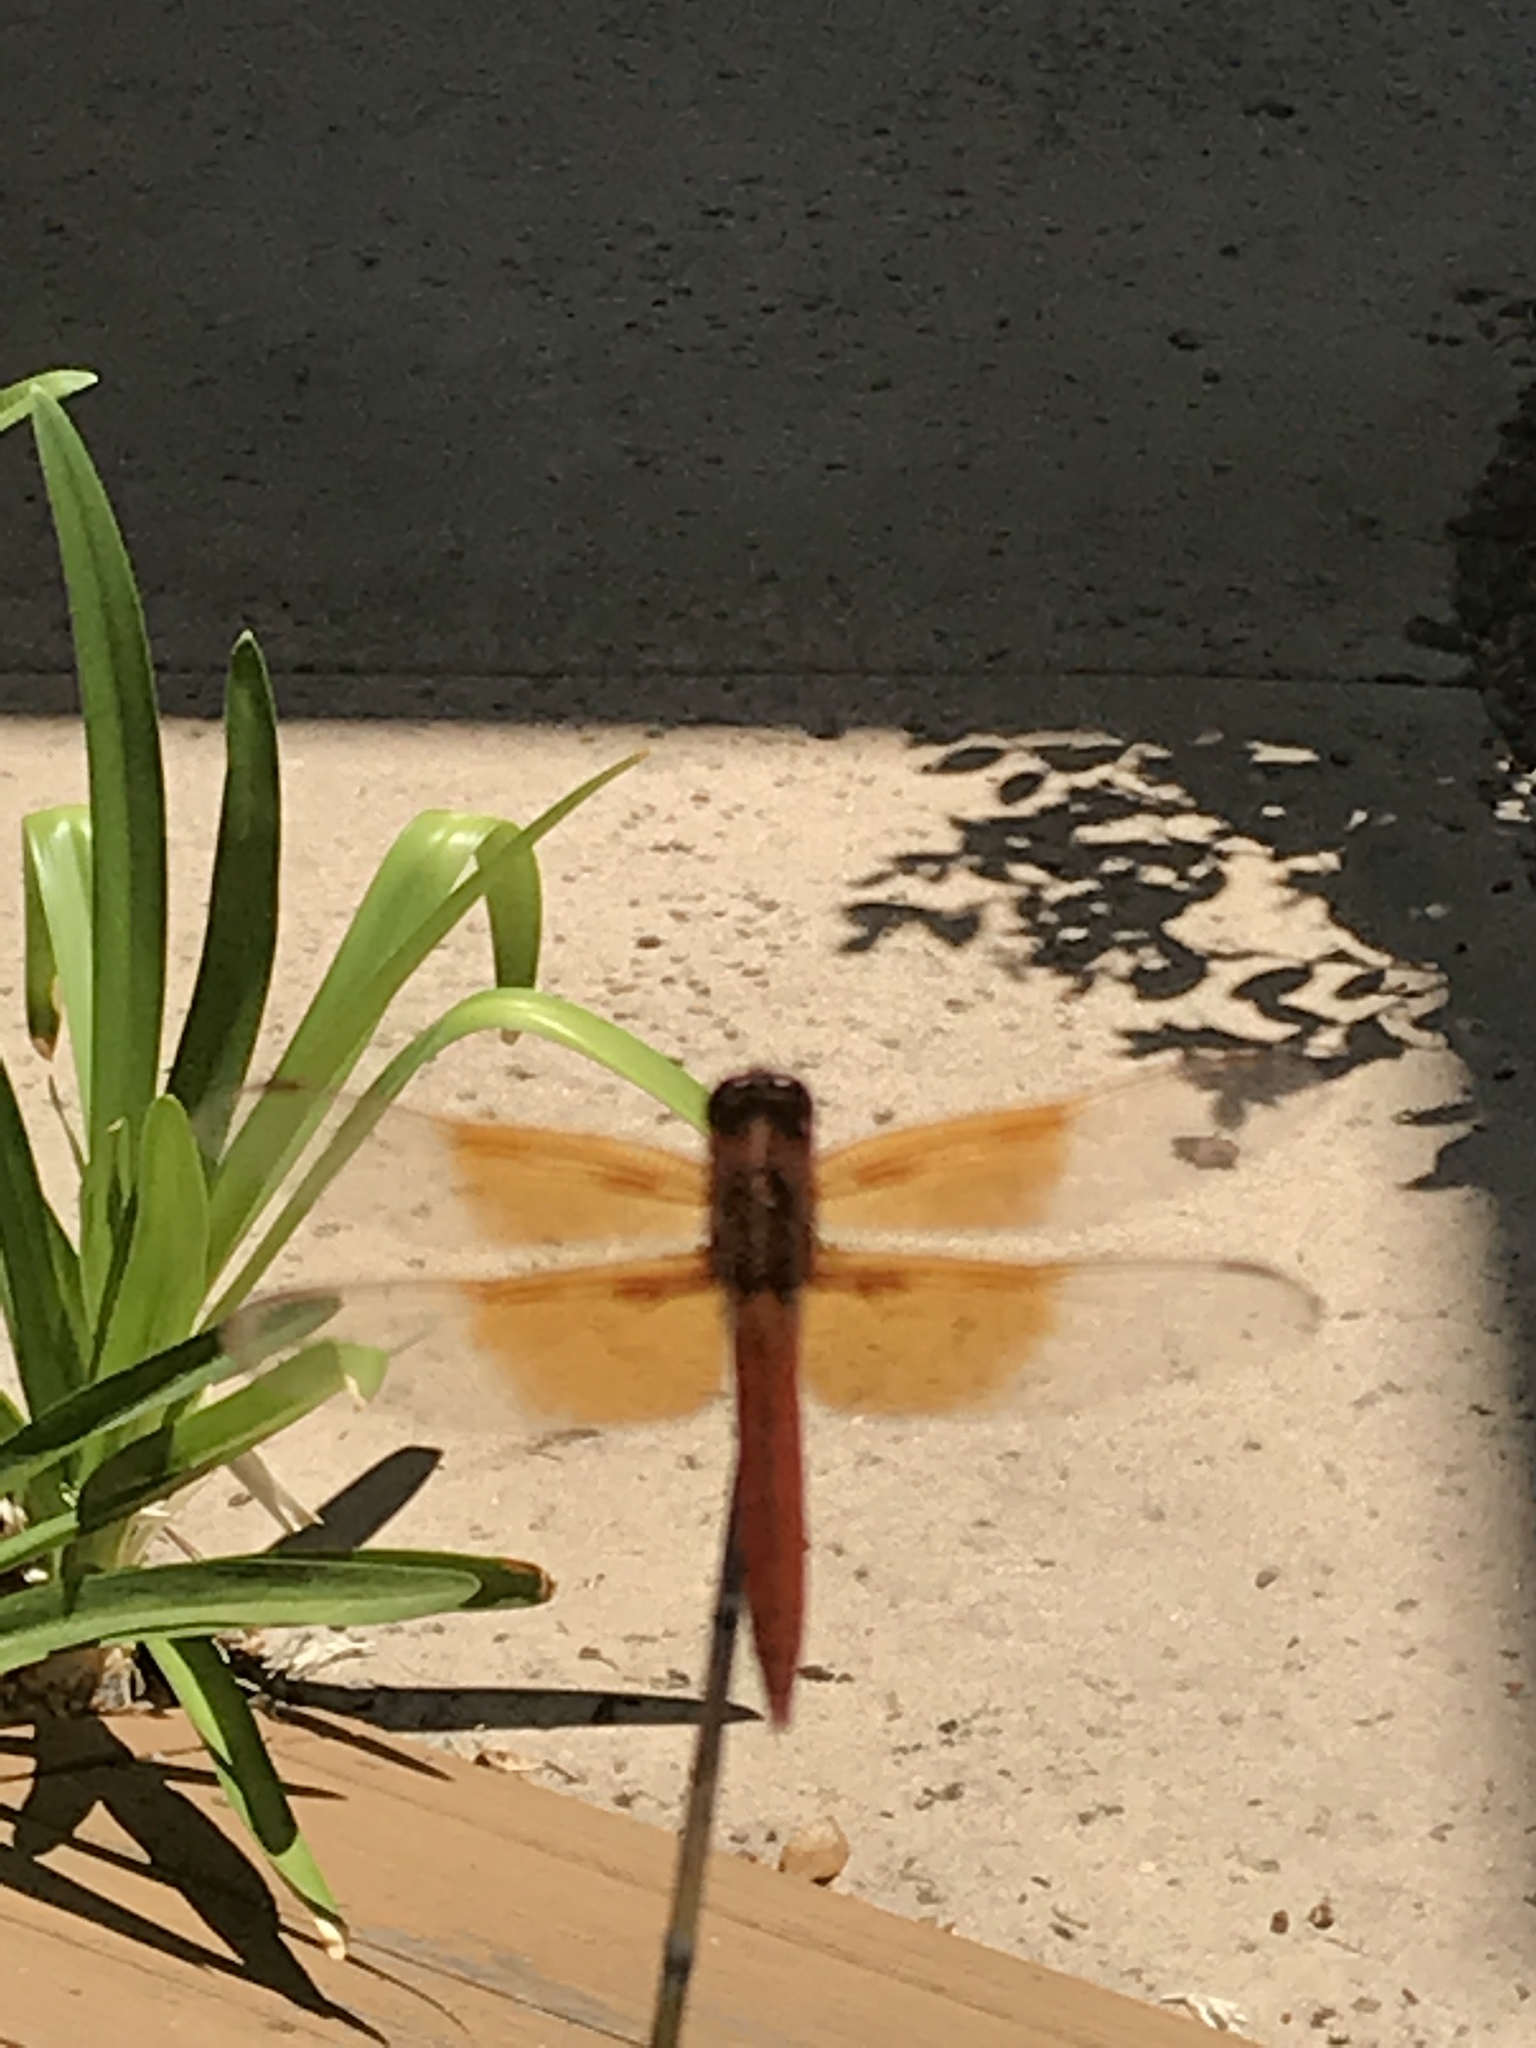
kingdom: Animalia
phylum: Arthropoda
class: Insecta
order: Odonata
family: Libellulidae
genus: Libellula
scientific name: Libellula saturata
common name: Flame skimmer
